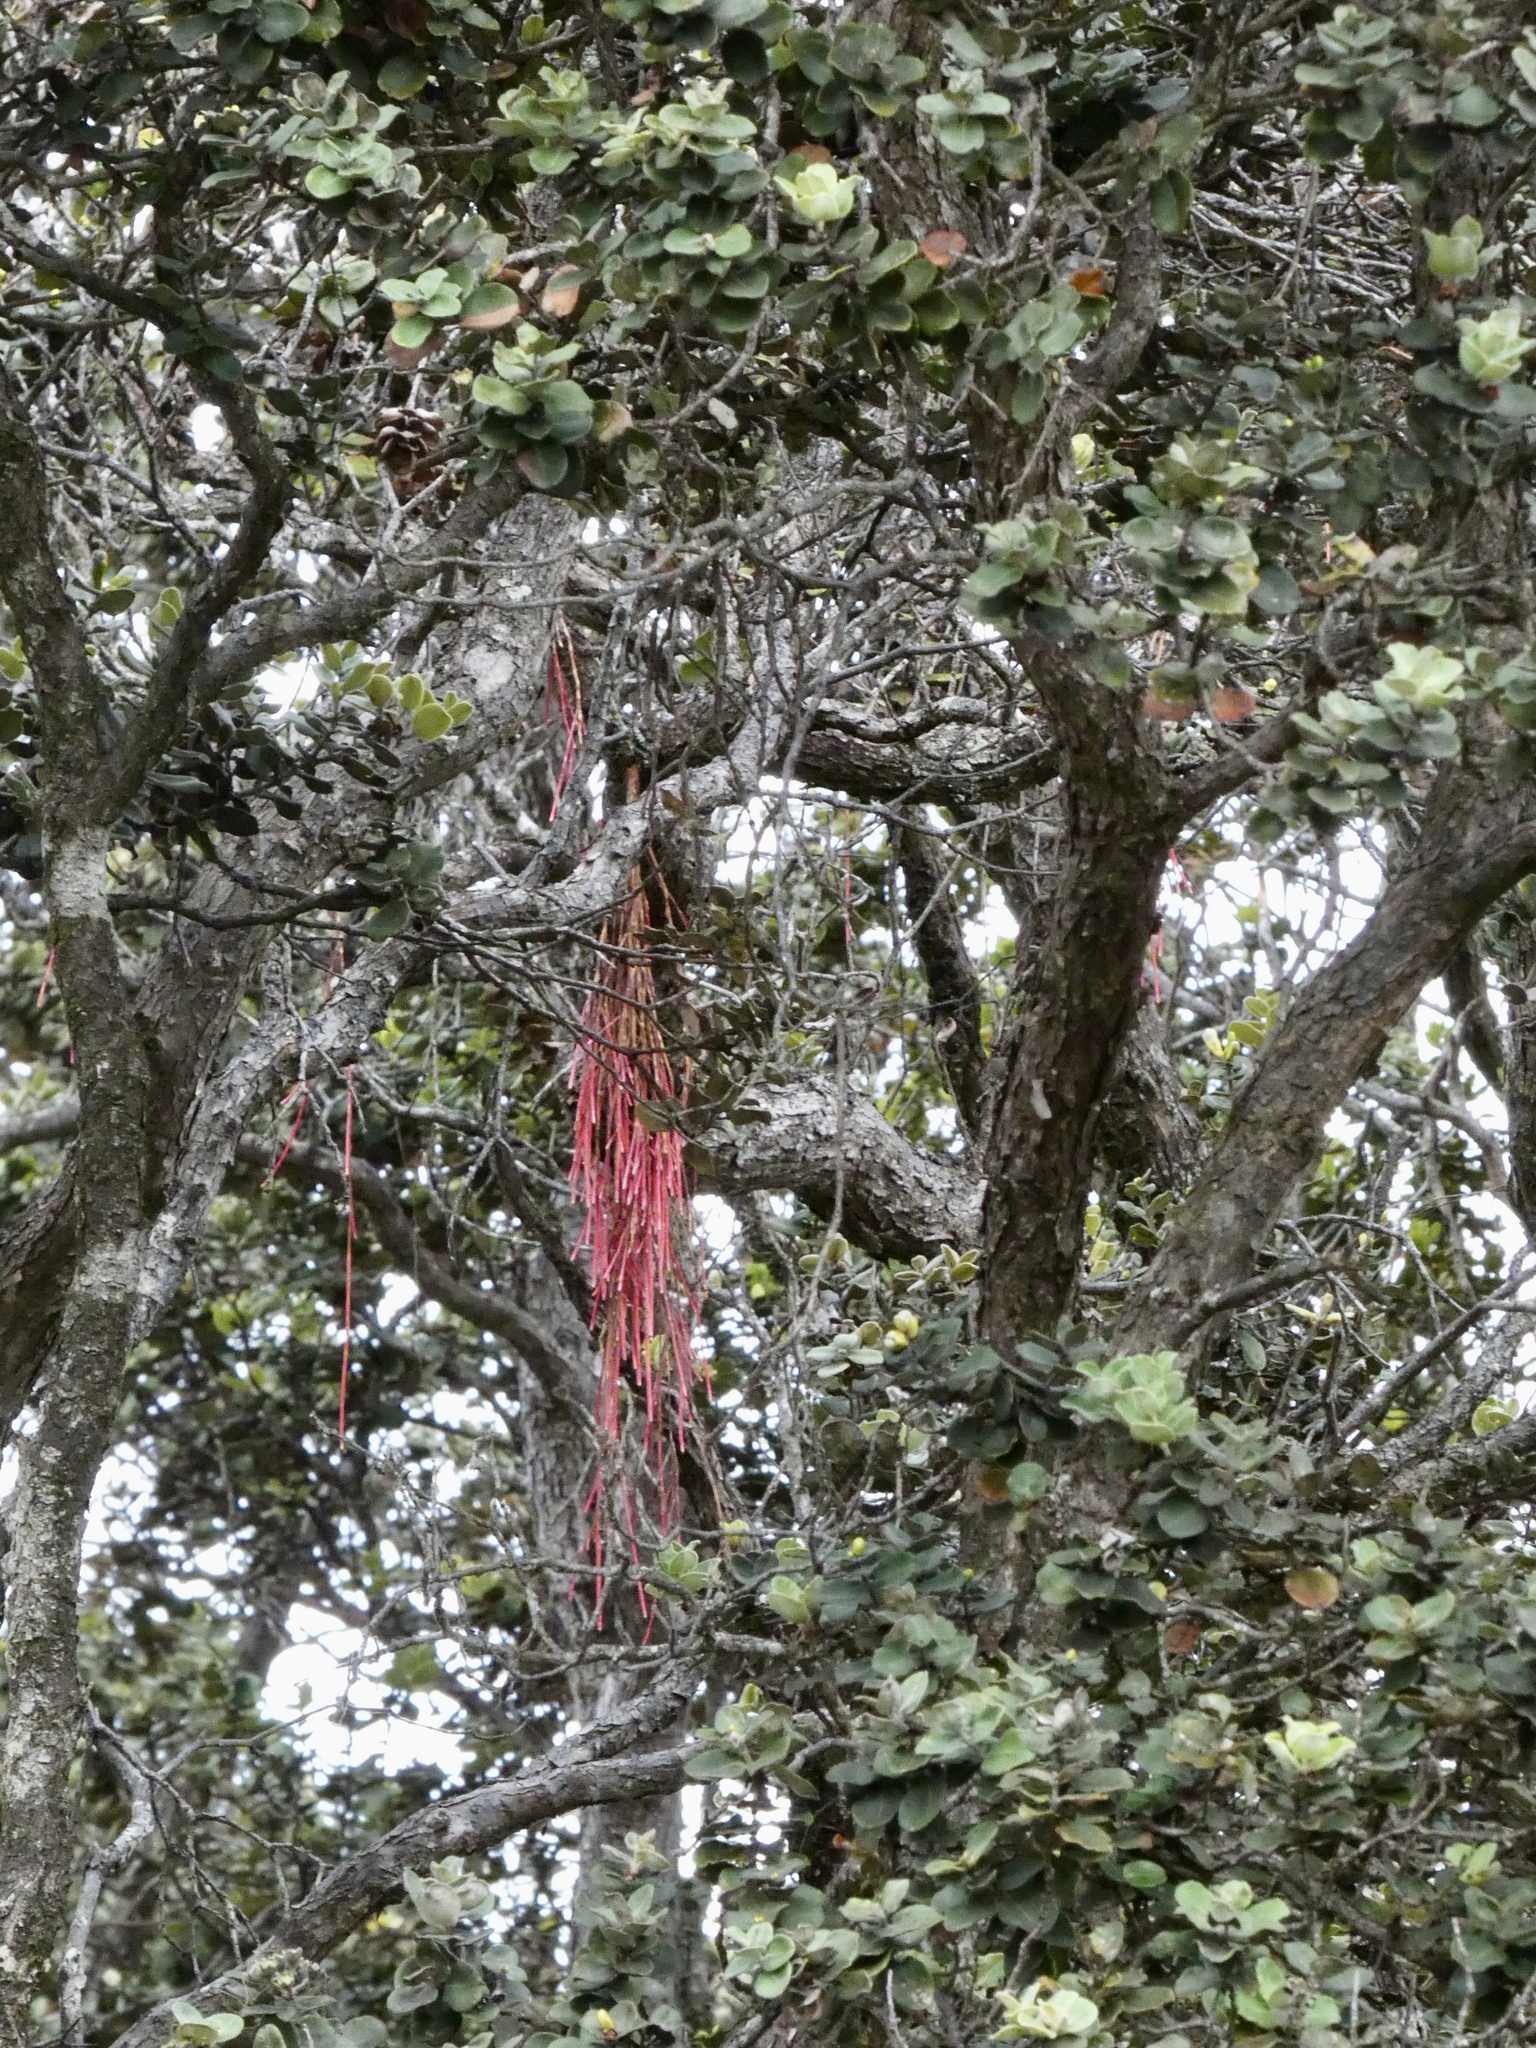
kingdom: Plantae
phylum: Tracheophyta
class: Magnoliopsida
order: Myrtales
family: Myrtaceae
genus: Metrosideros
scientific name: Metrosideros polymorpha
